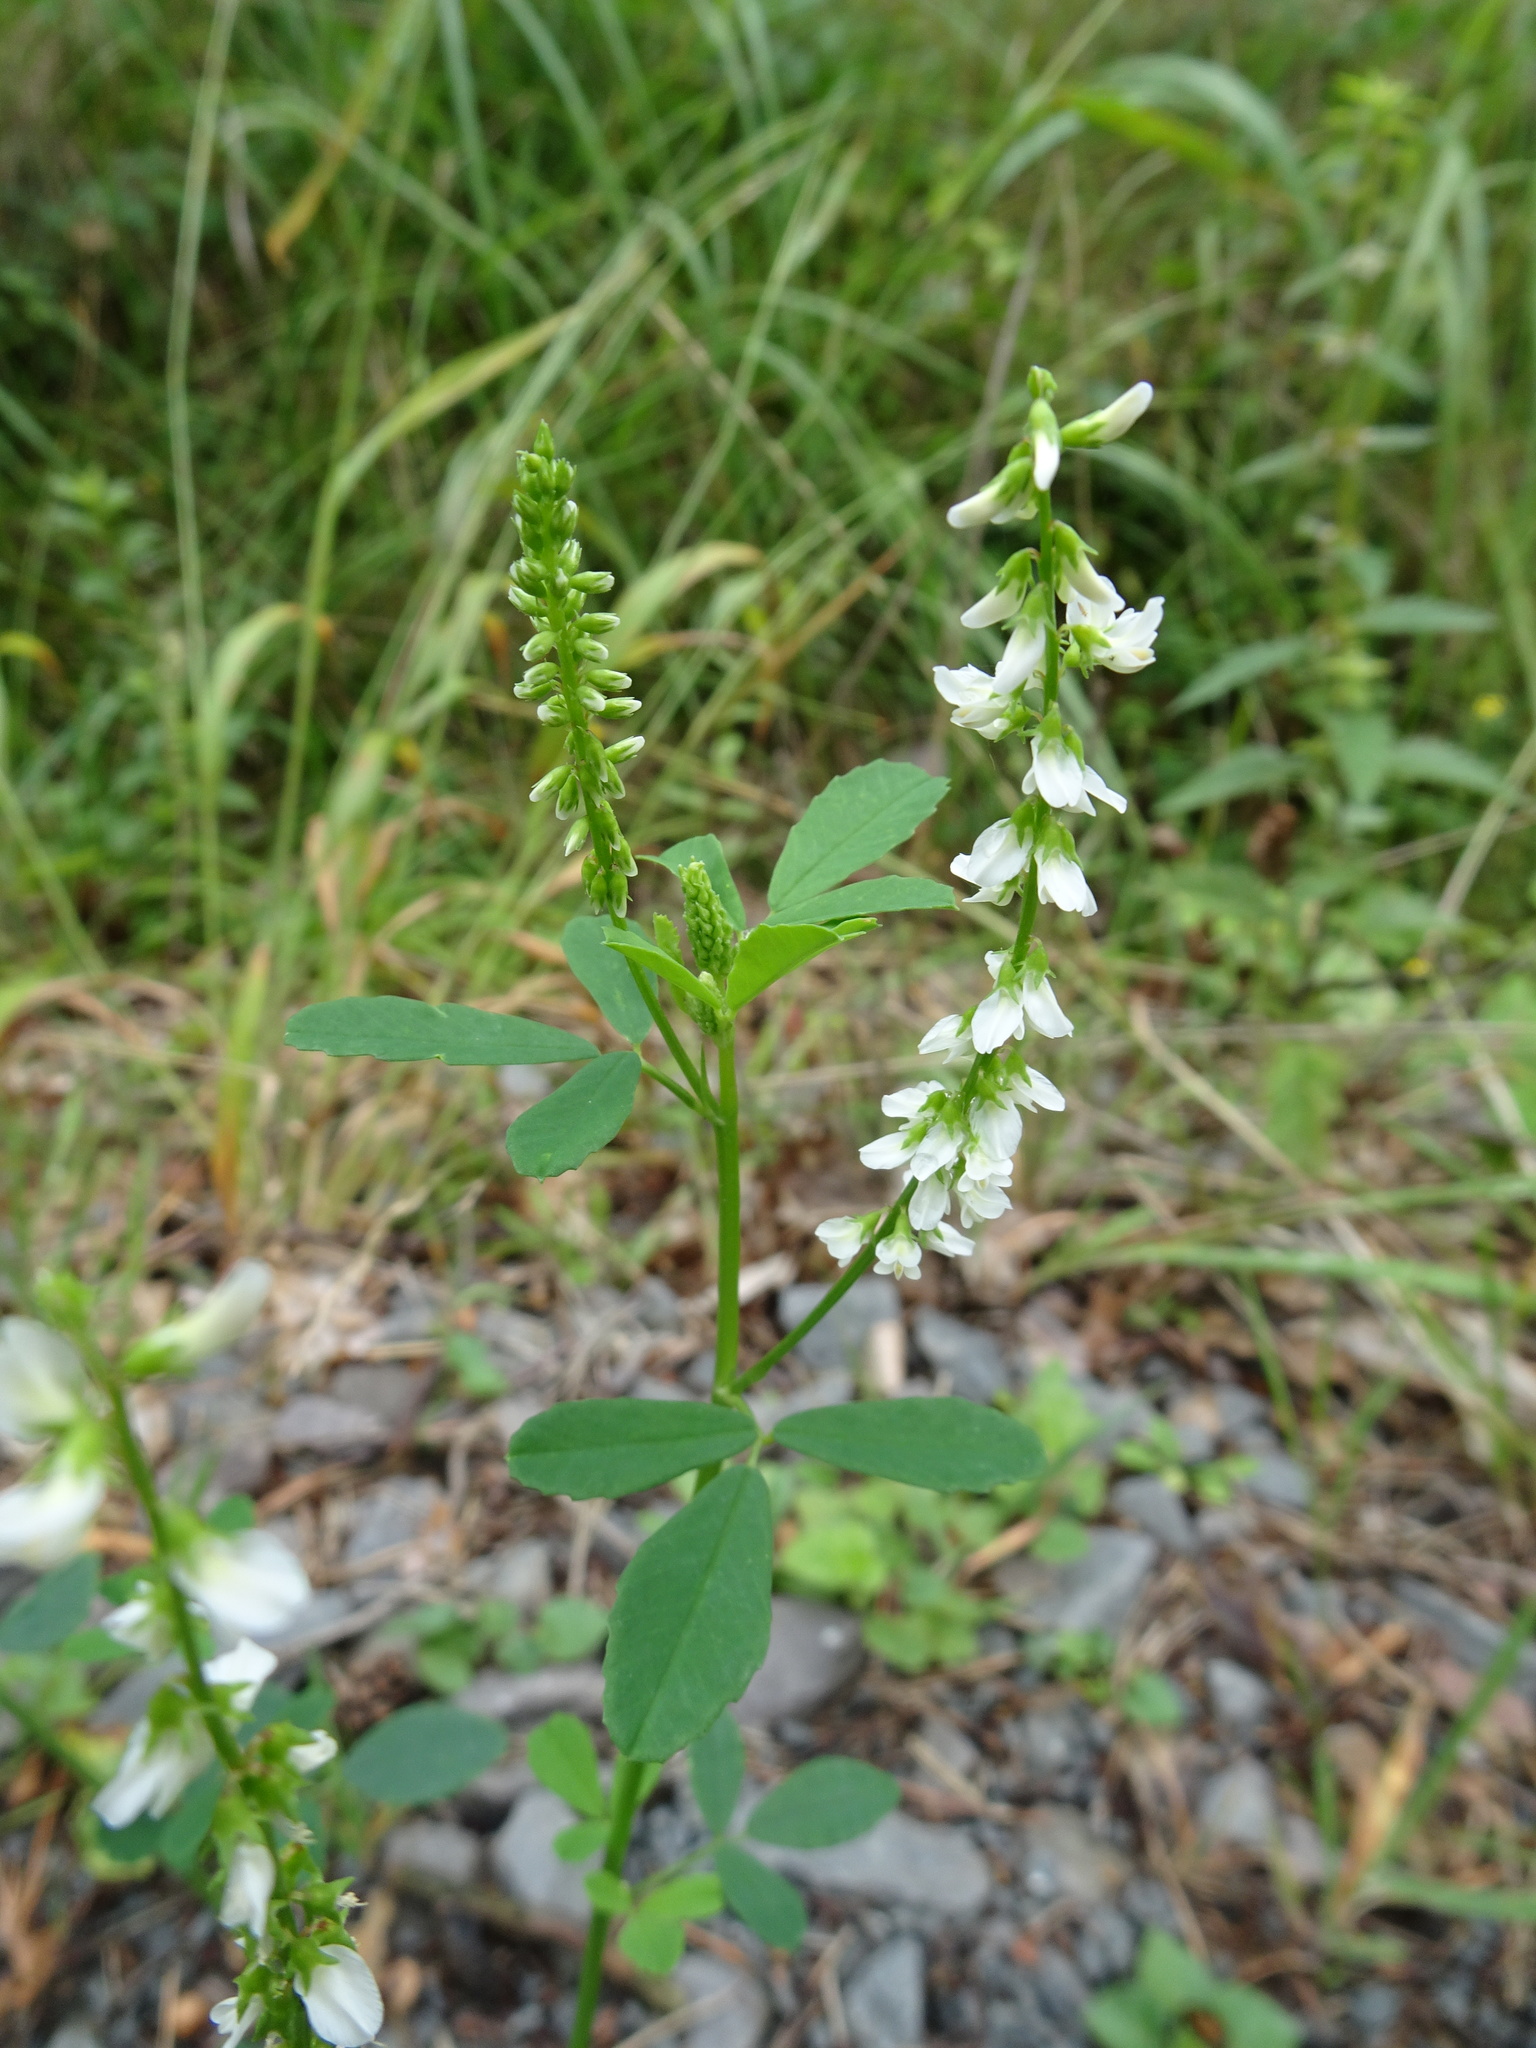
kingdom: Plantae
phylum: Tracheophyta
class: Magnoliopsida
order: Fabales
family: Fabaceae
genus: Melilotus
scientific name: Melilotus albus
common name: White melilot
